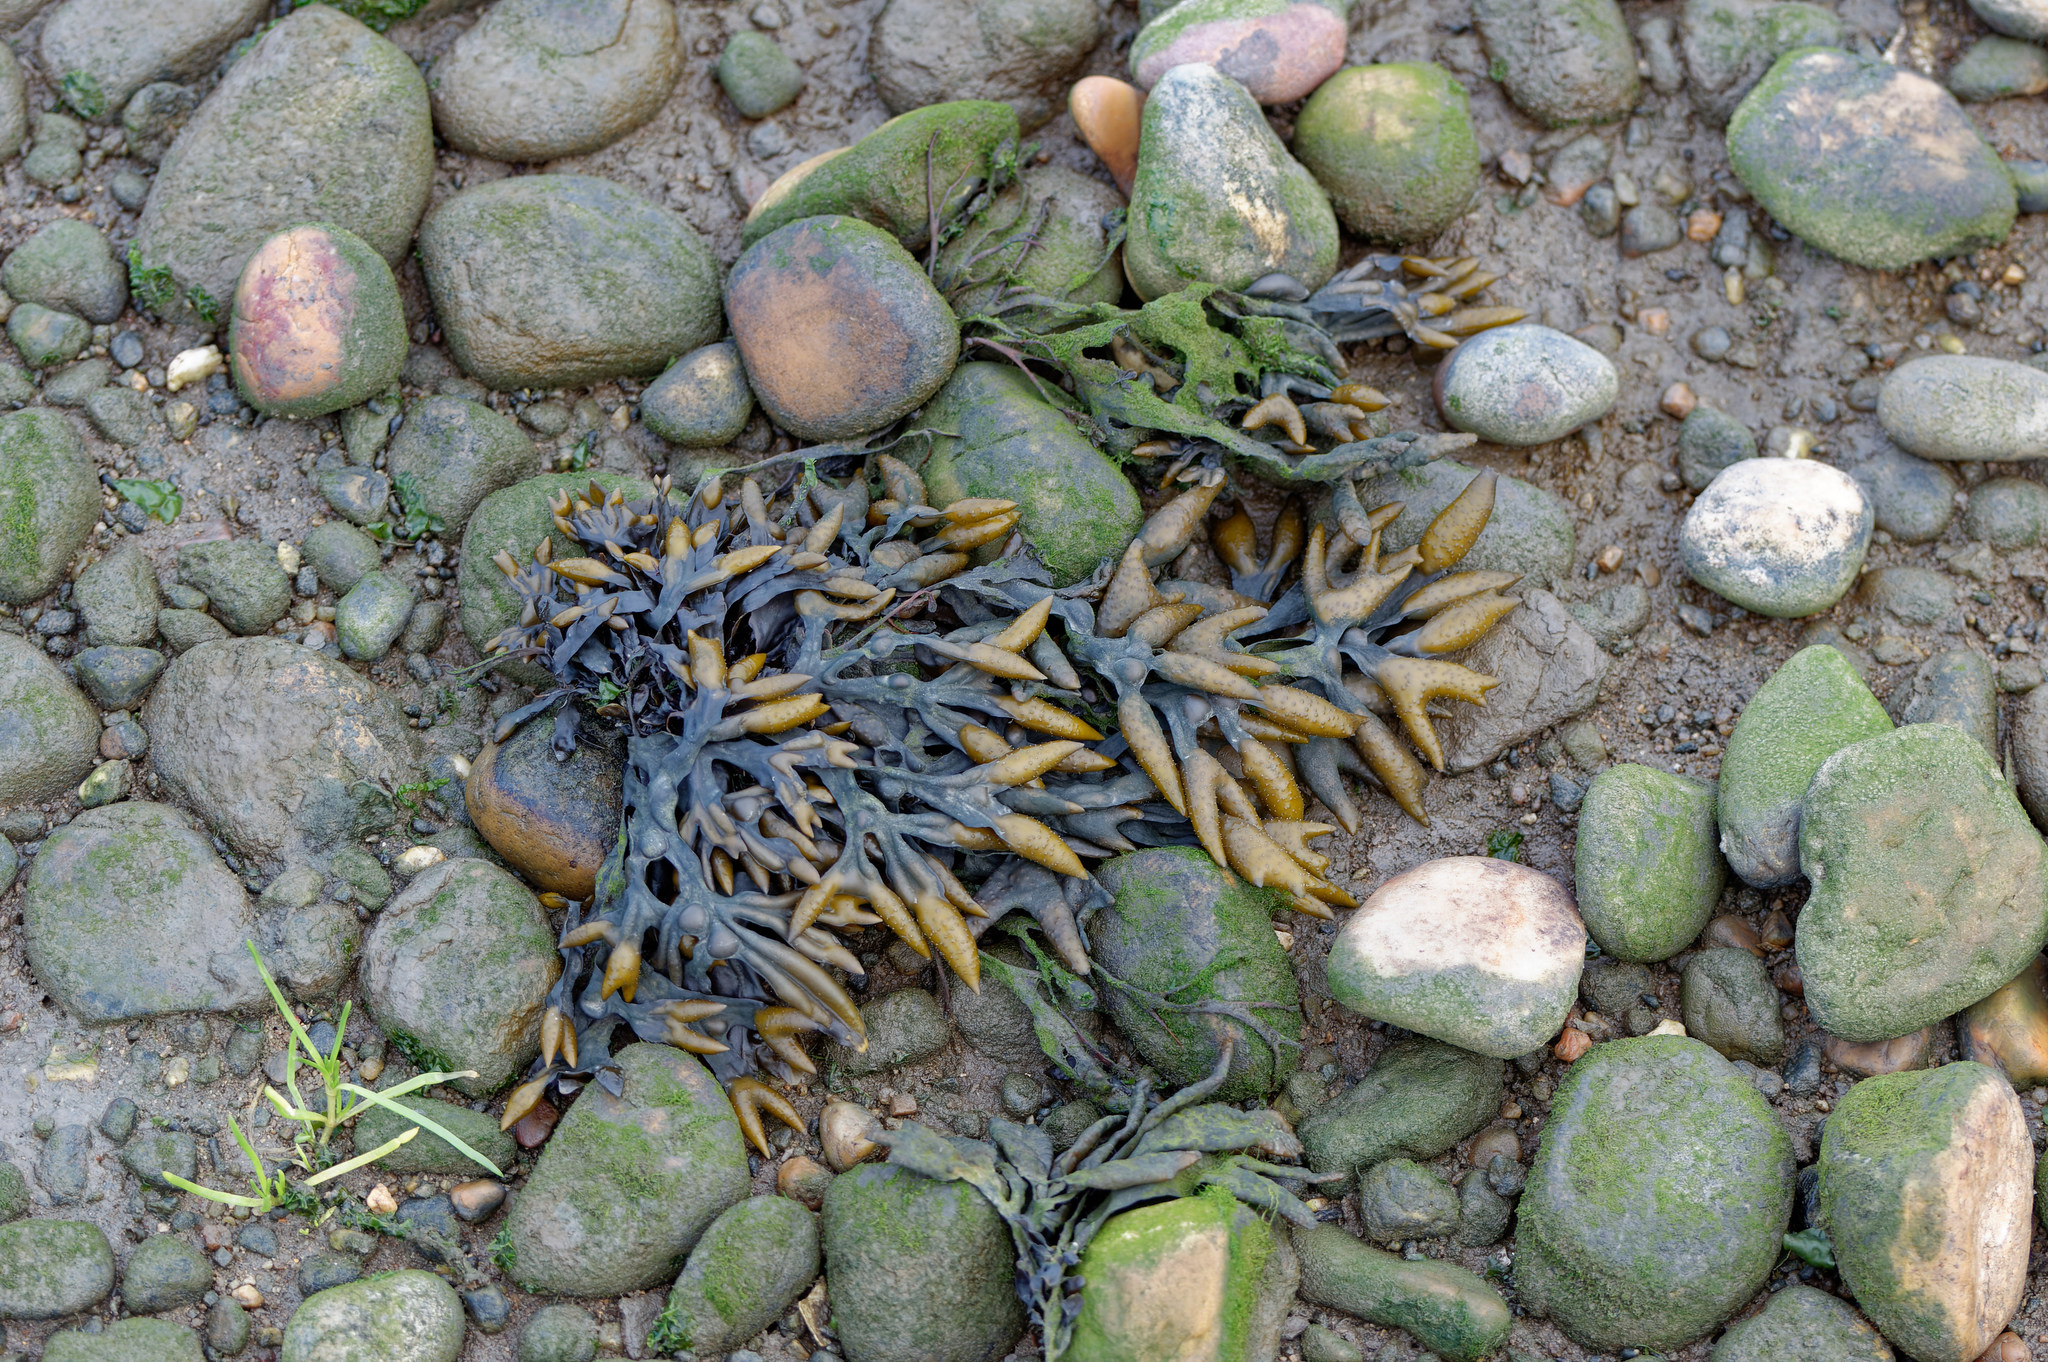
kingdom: Chromista
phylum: Ochrophyta
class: Phaeophyceae
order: Fucales
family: Fucaceae
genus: Fucus
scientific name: Fucus vesiculosus
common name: Bladder wrack
